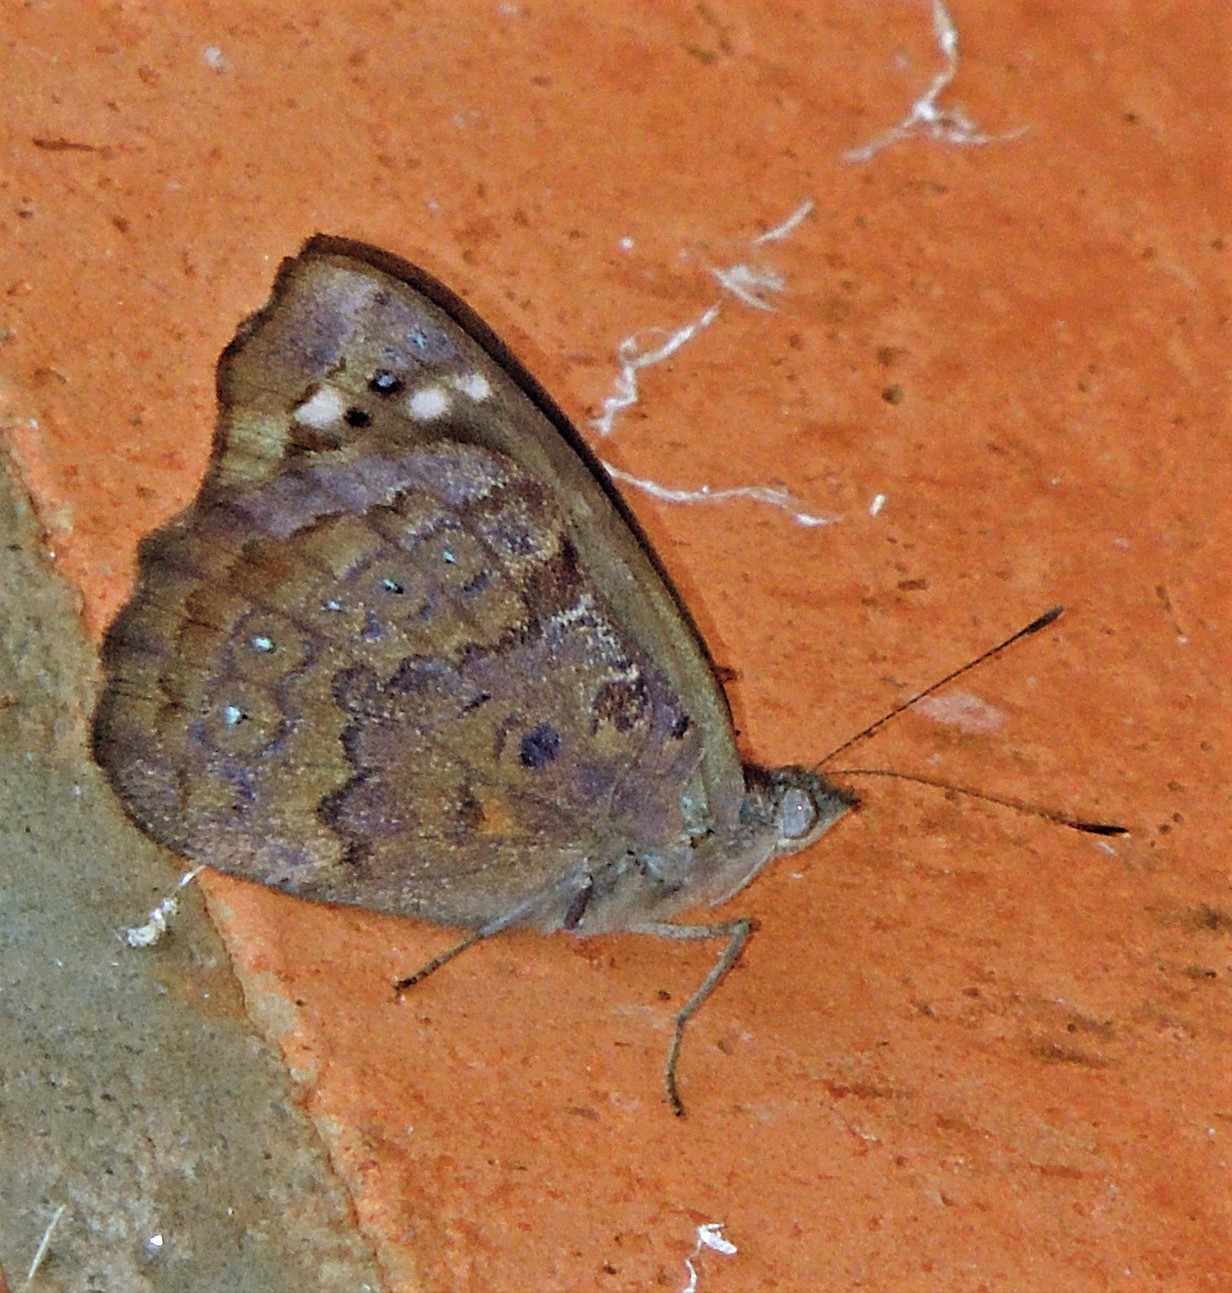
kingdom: Animalia
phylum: Arthropoda
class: Insecta
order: Lepidoptera
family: Nymphalidae
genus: Eunica
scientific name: Eunica tatila
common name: Florida purplewing
